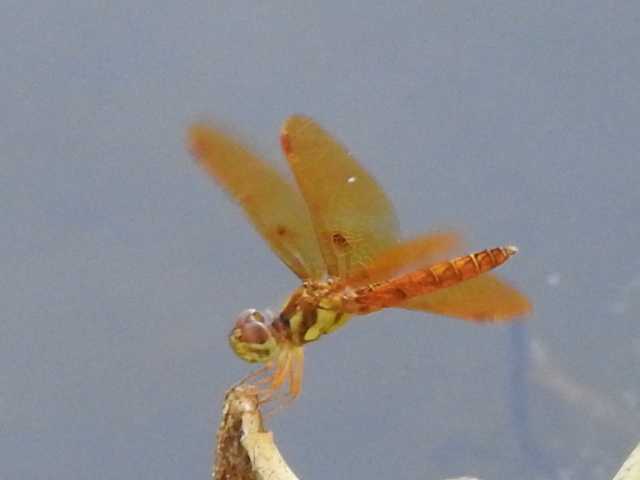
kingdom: Animalia
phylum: Arthropoda
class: Insecta
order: Odonata
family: Libellulidae
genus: Perithemis
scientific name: Perithemis tenera
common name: Eastern amberwing
